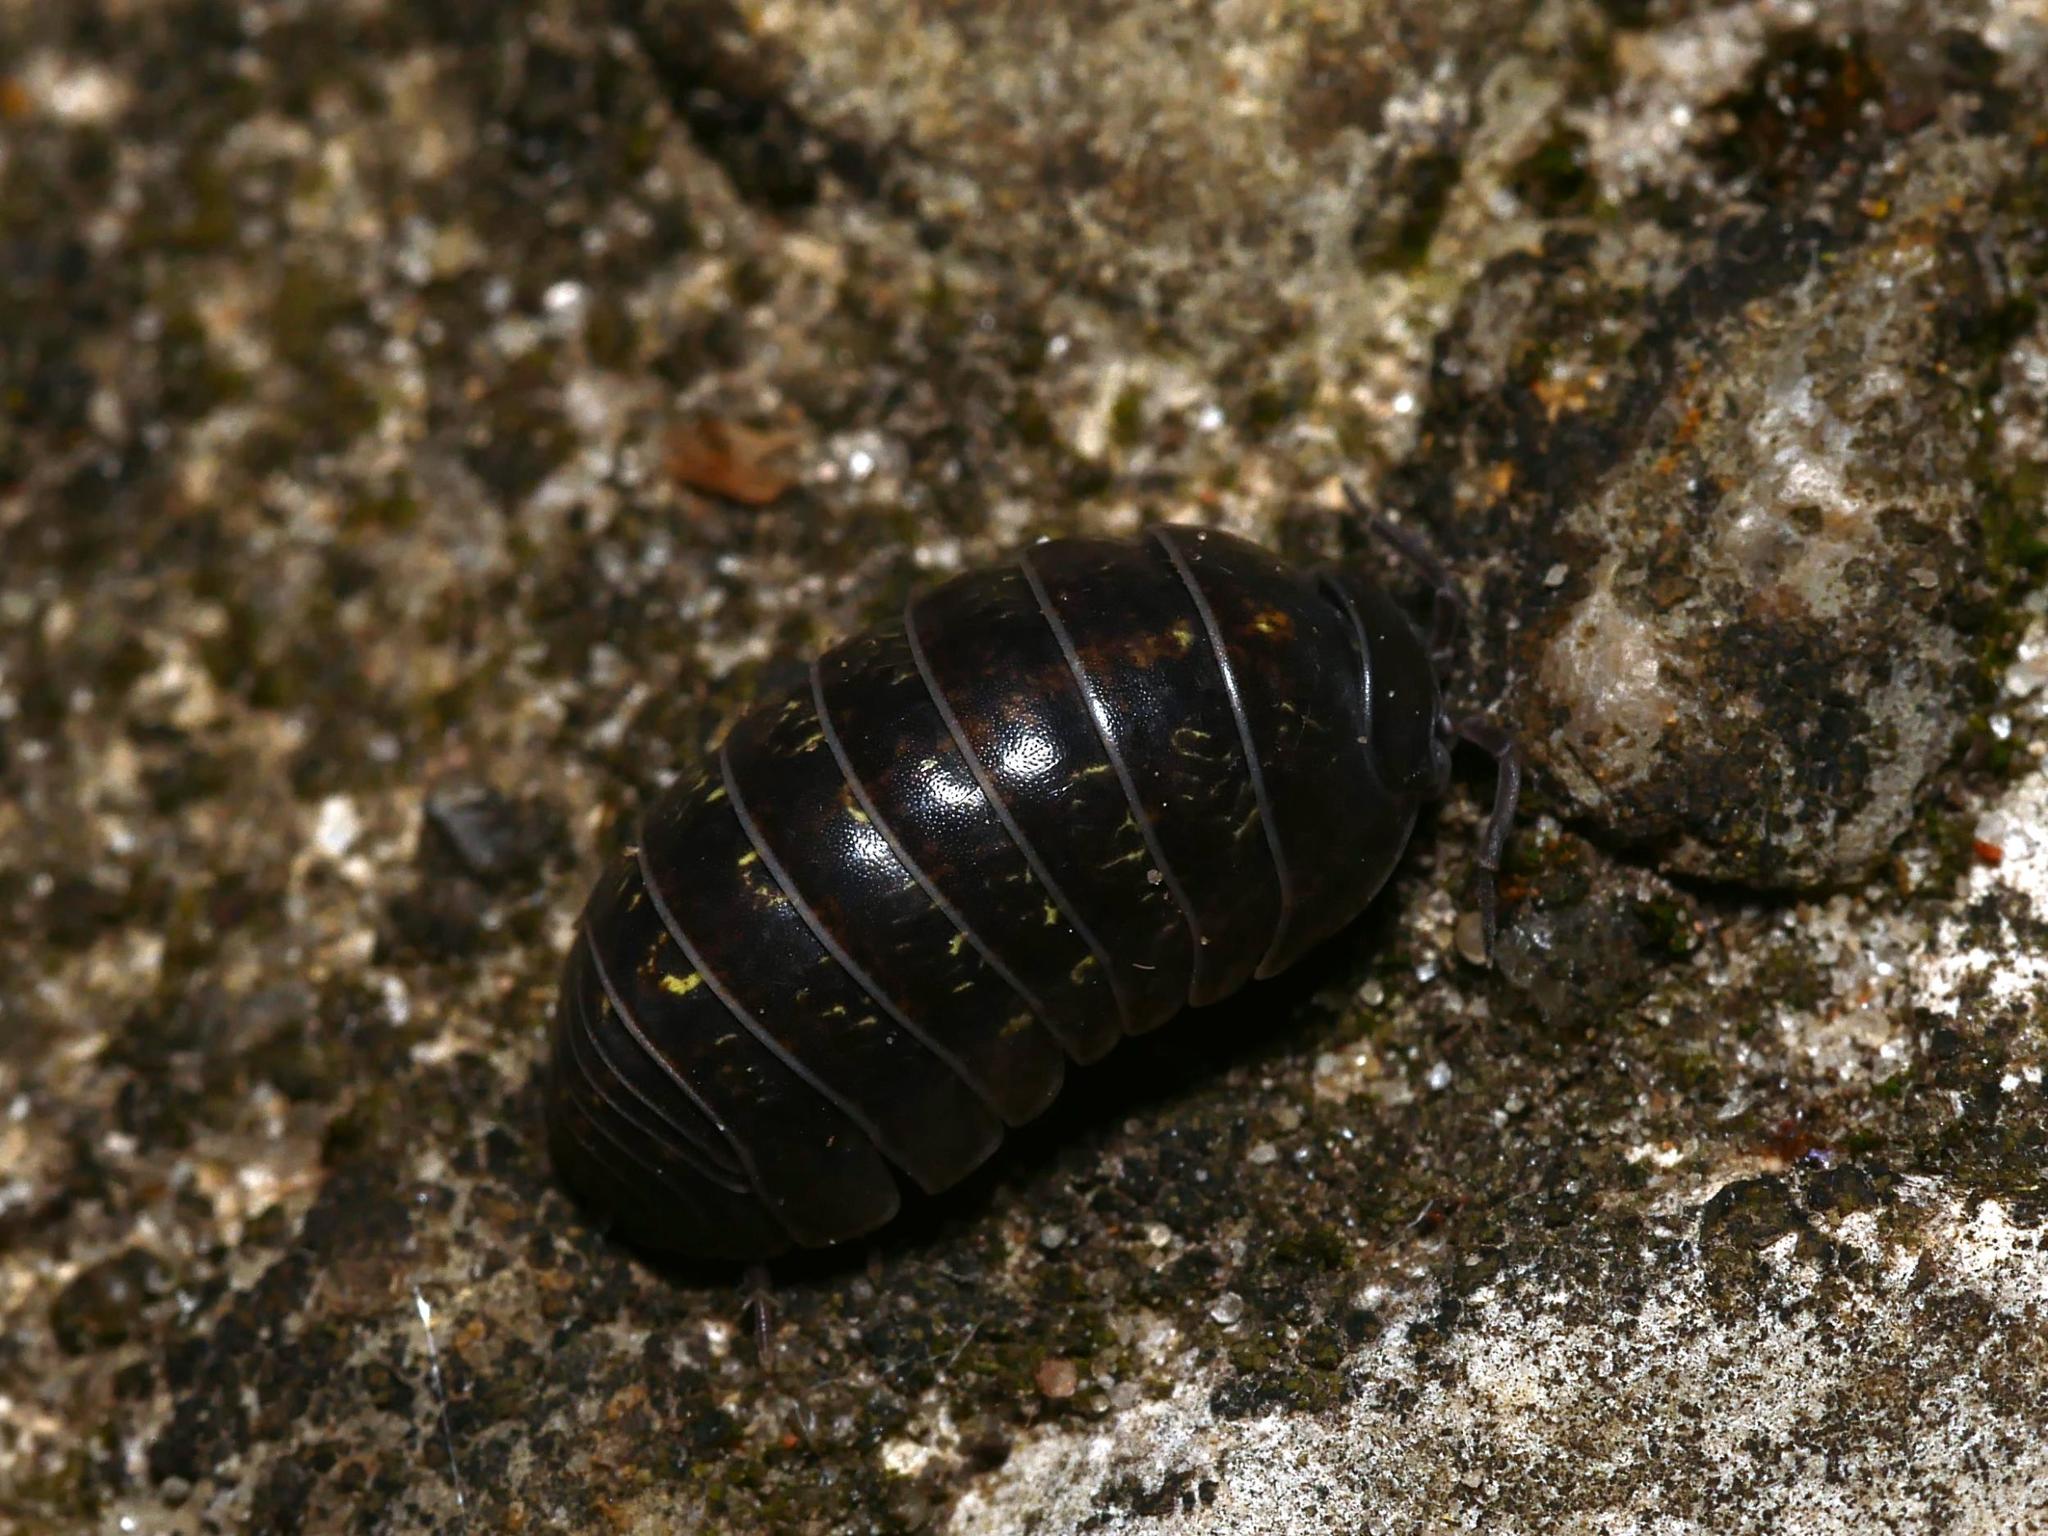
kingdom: Animalia
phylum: Arthropoda
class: Malacostraca
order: Isopoda
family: Armadillidiidae
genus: Armadillidium
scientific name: Armadillidium vulgare
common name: Common pill woodlouse
